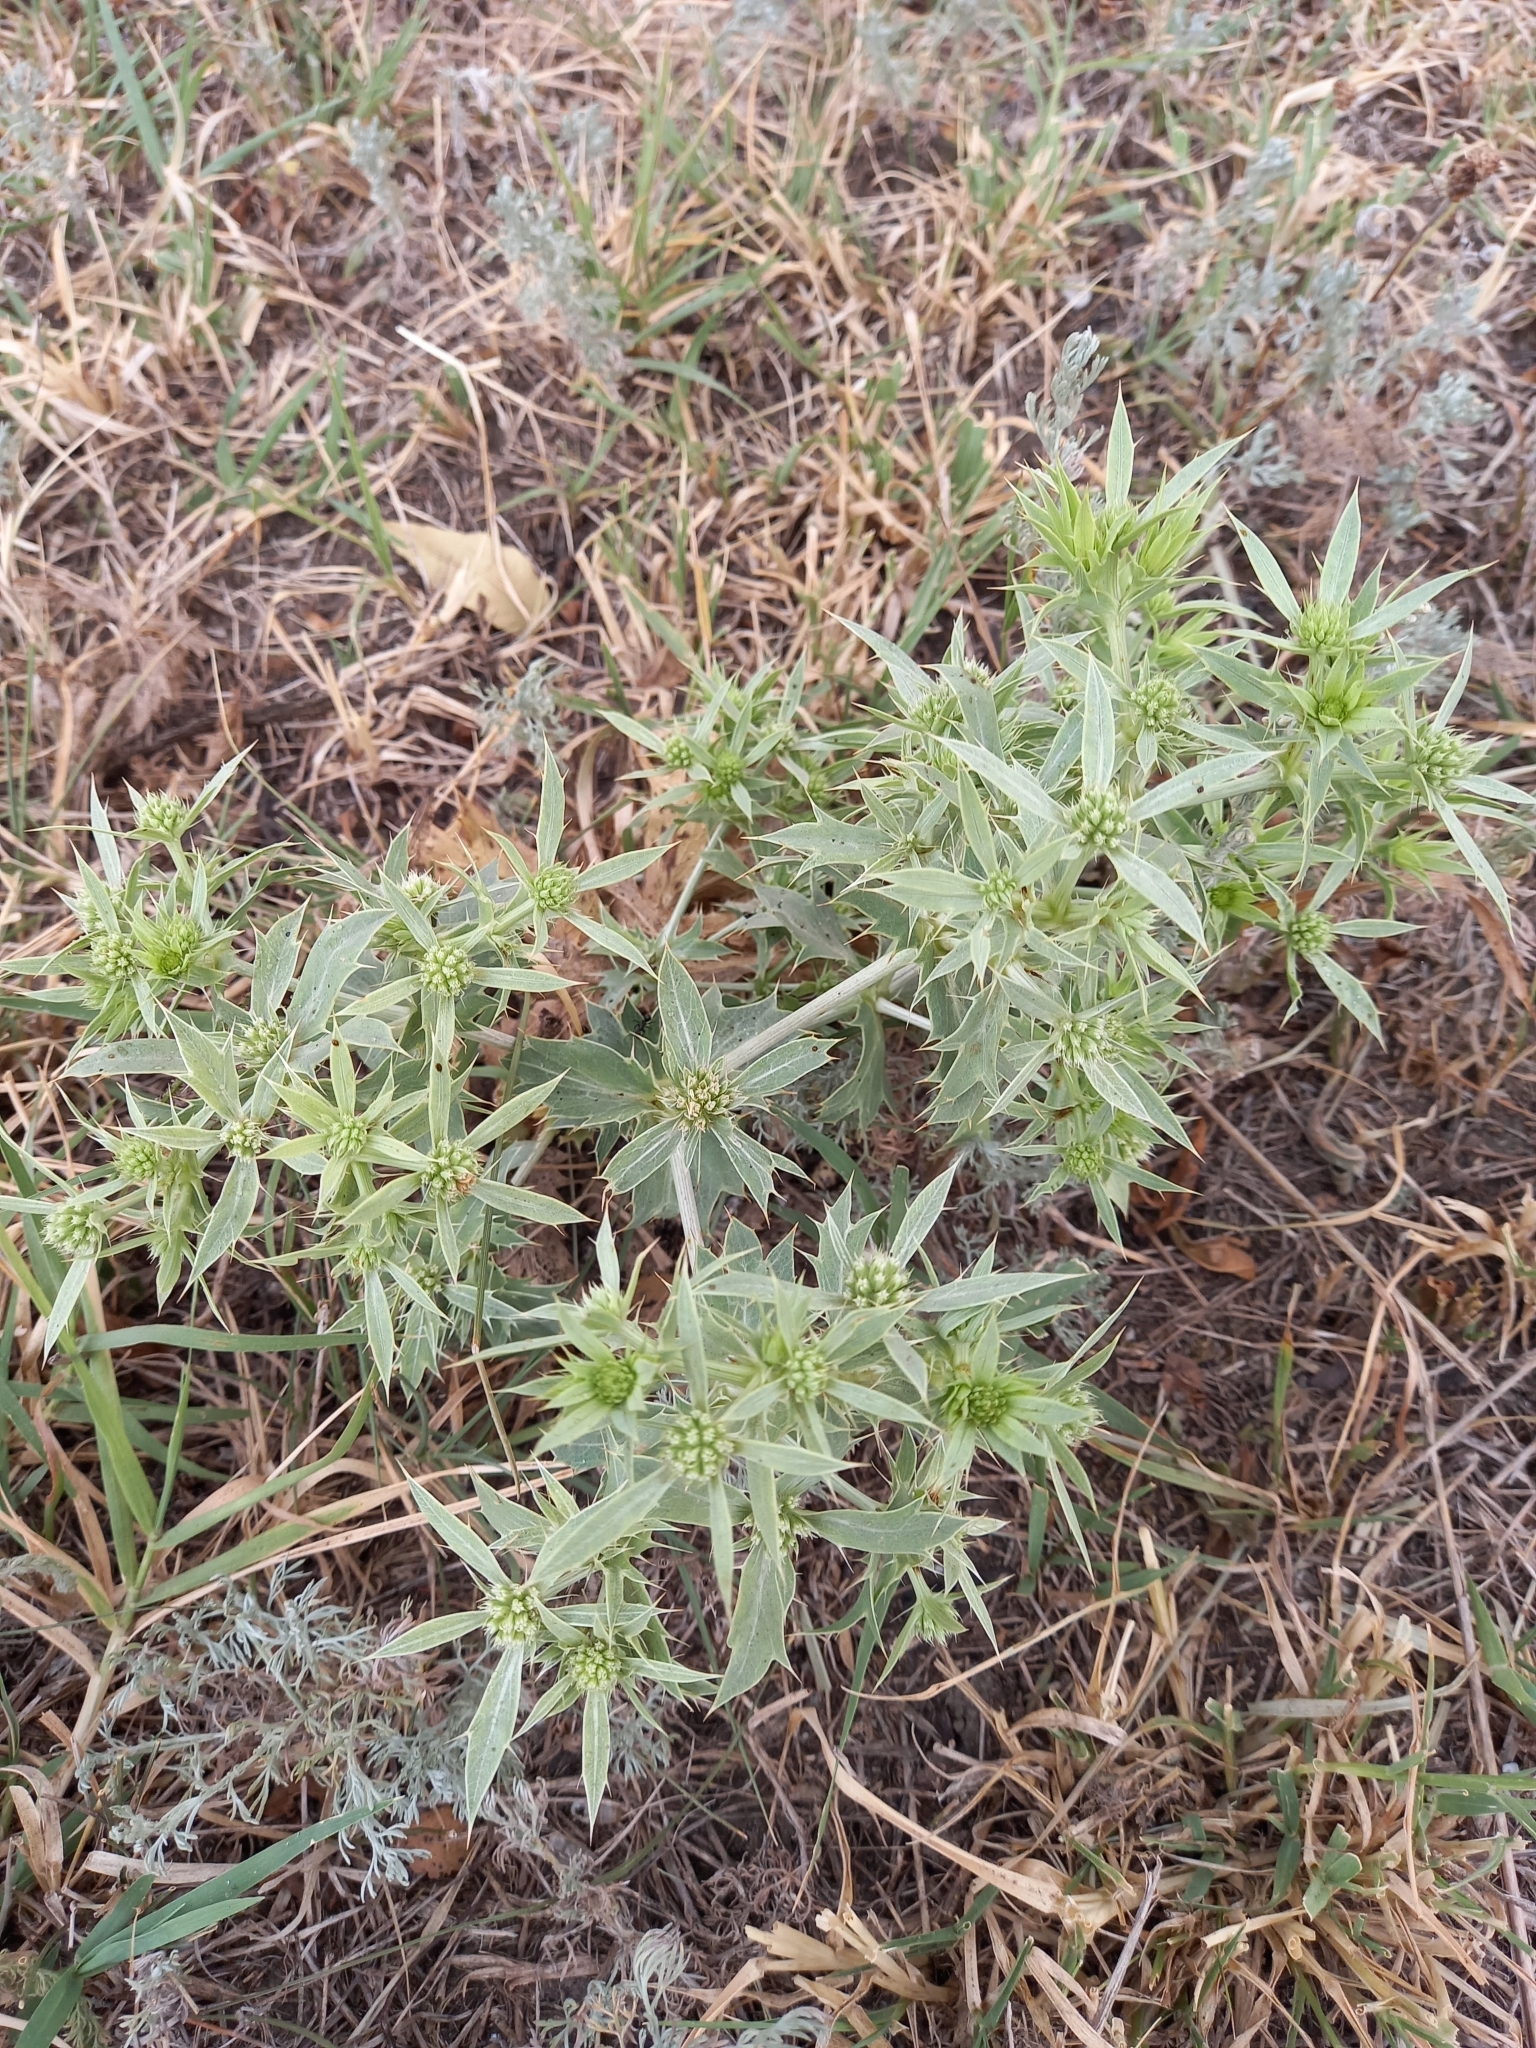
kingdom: Plantae
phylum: Tracheophyta
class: Magnoliopsida
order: Apiales
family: Apiaceae
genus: Eryngium
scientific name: Eryngium campestre
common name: Field eryngo
